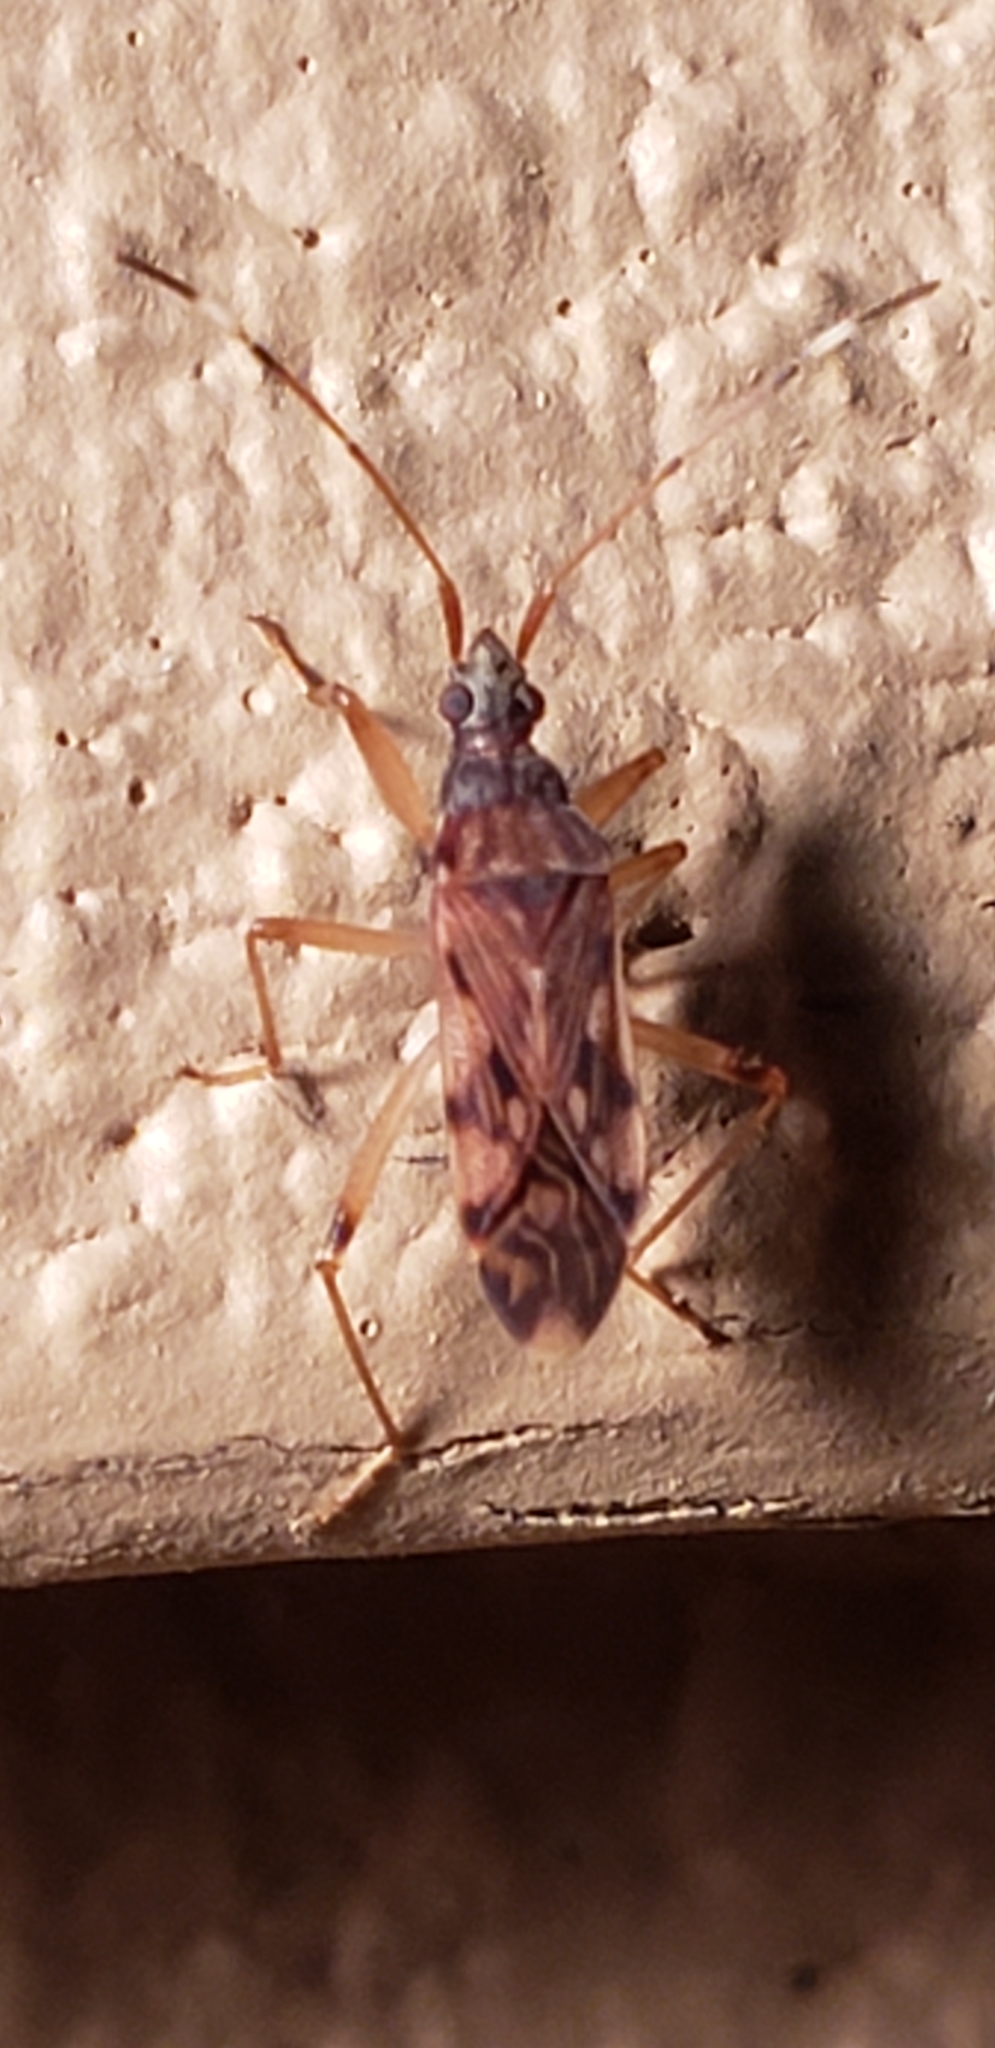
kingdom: Animalia
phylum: Arthropoda
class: Insecta
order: Hemiptera
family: Rhyparochromidae
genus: Ozophora
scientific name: Ozophora picturata
